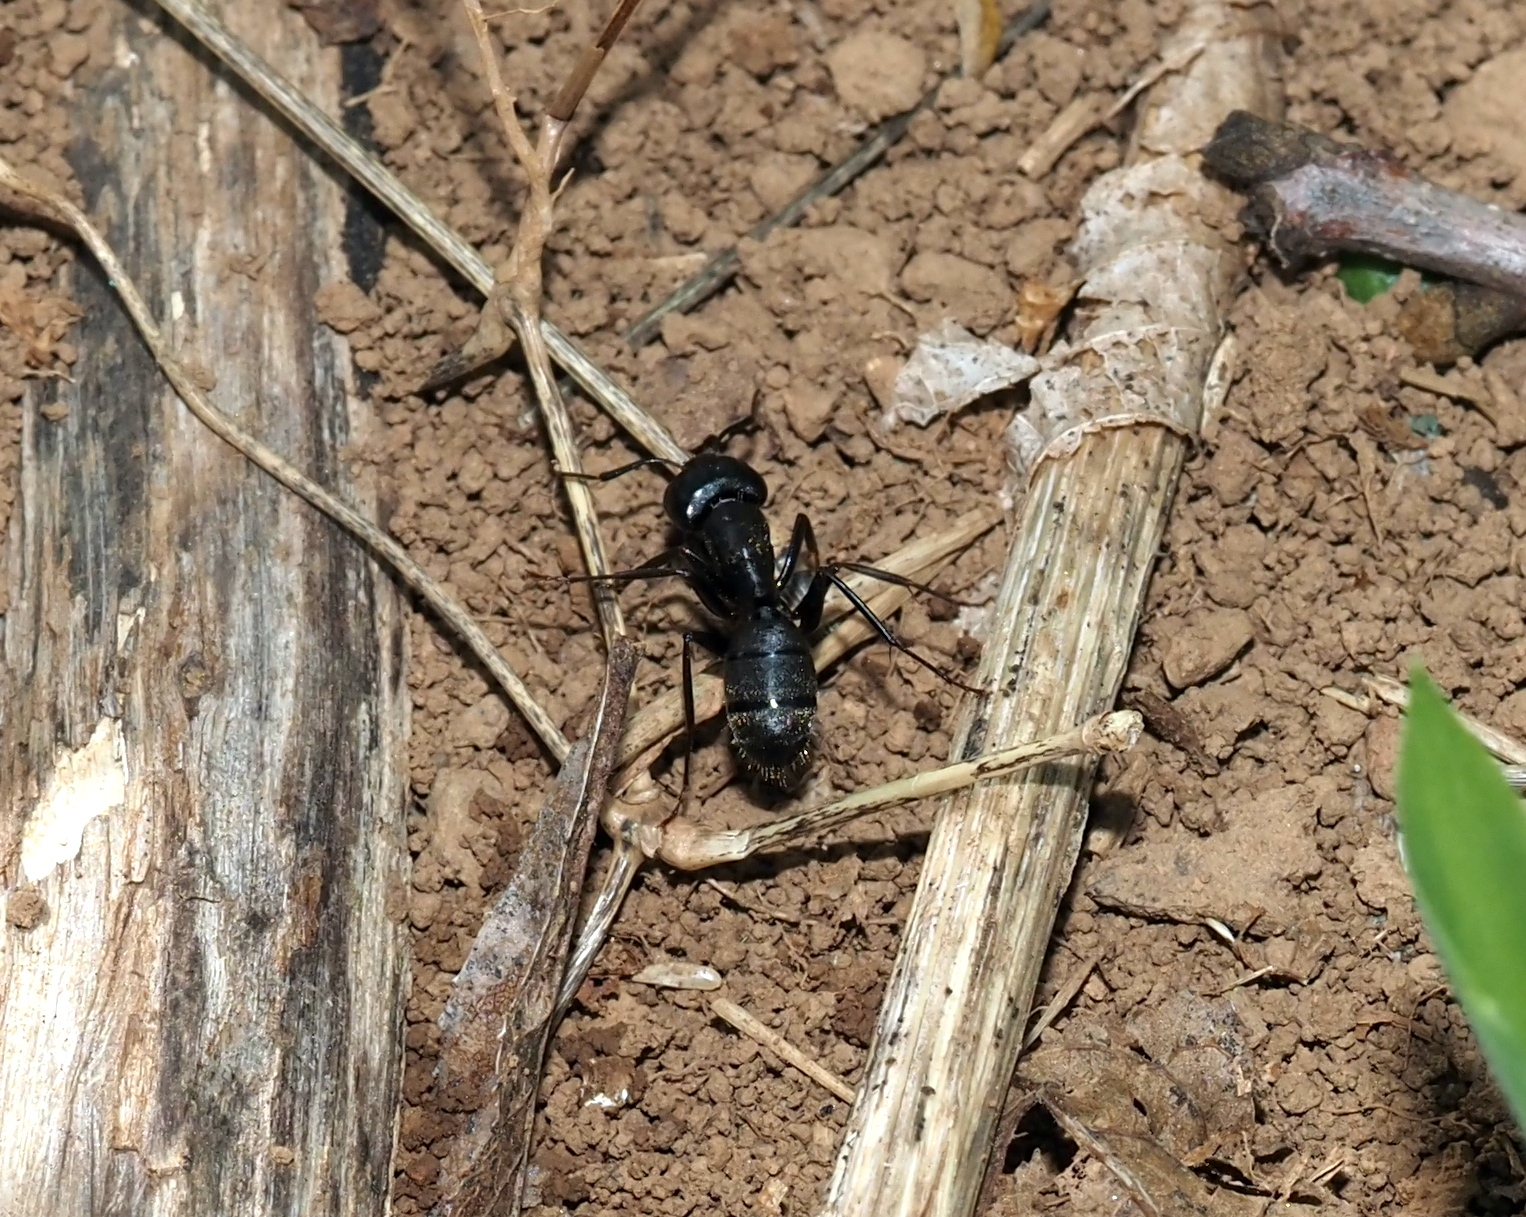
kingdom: Animalia
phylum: Arthropoda
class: Insecta
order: Hymenoptera
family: Formicidae
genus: Camponotus
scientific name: Camponotus pennsylvanicus
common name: Black carpenter ant
